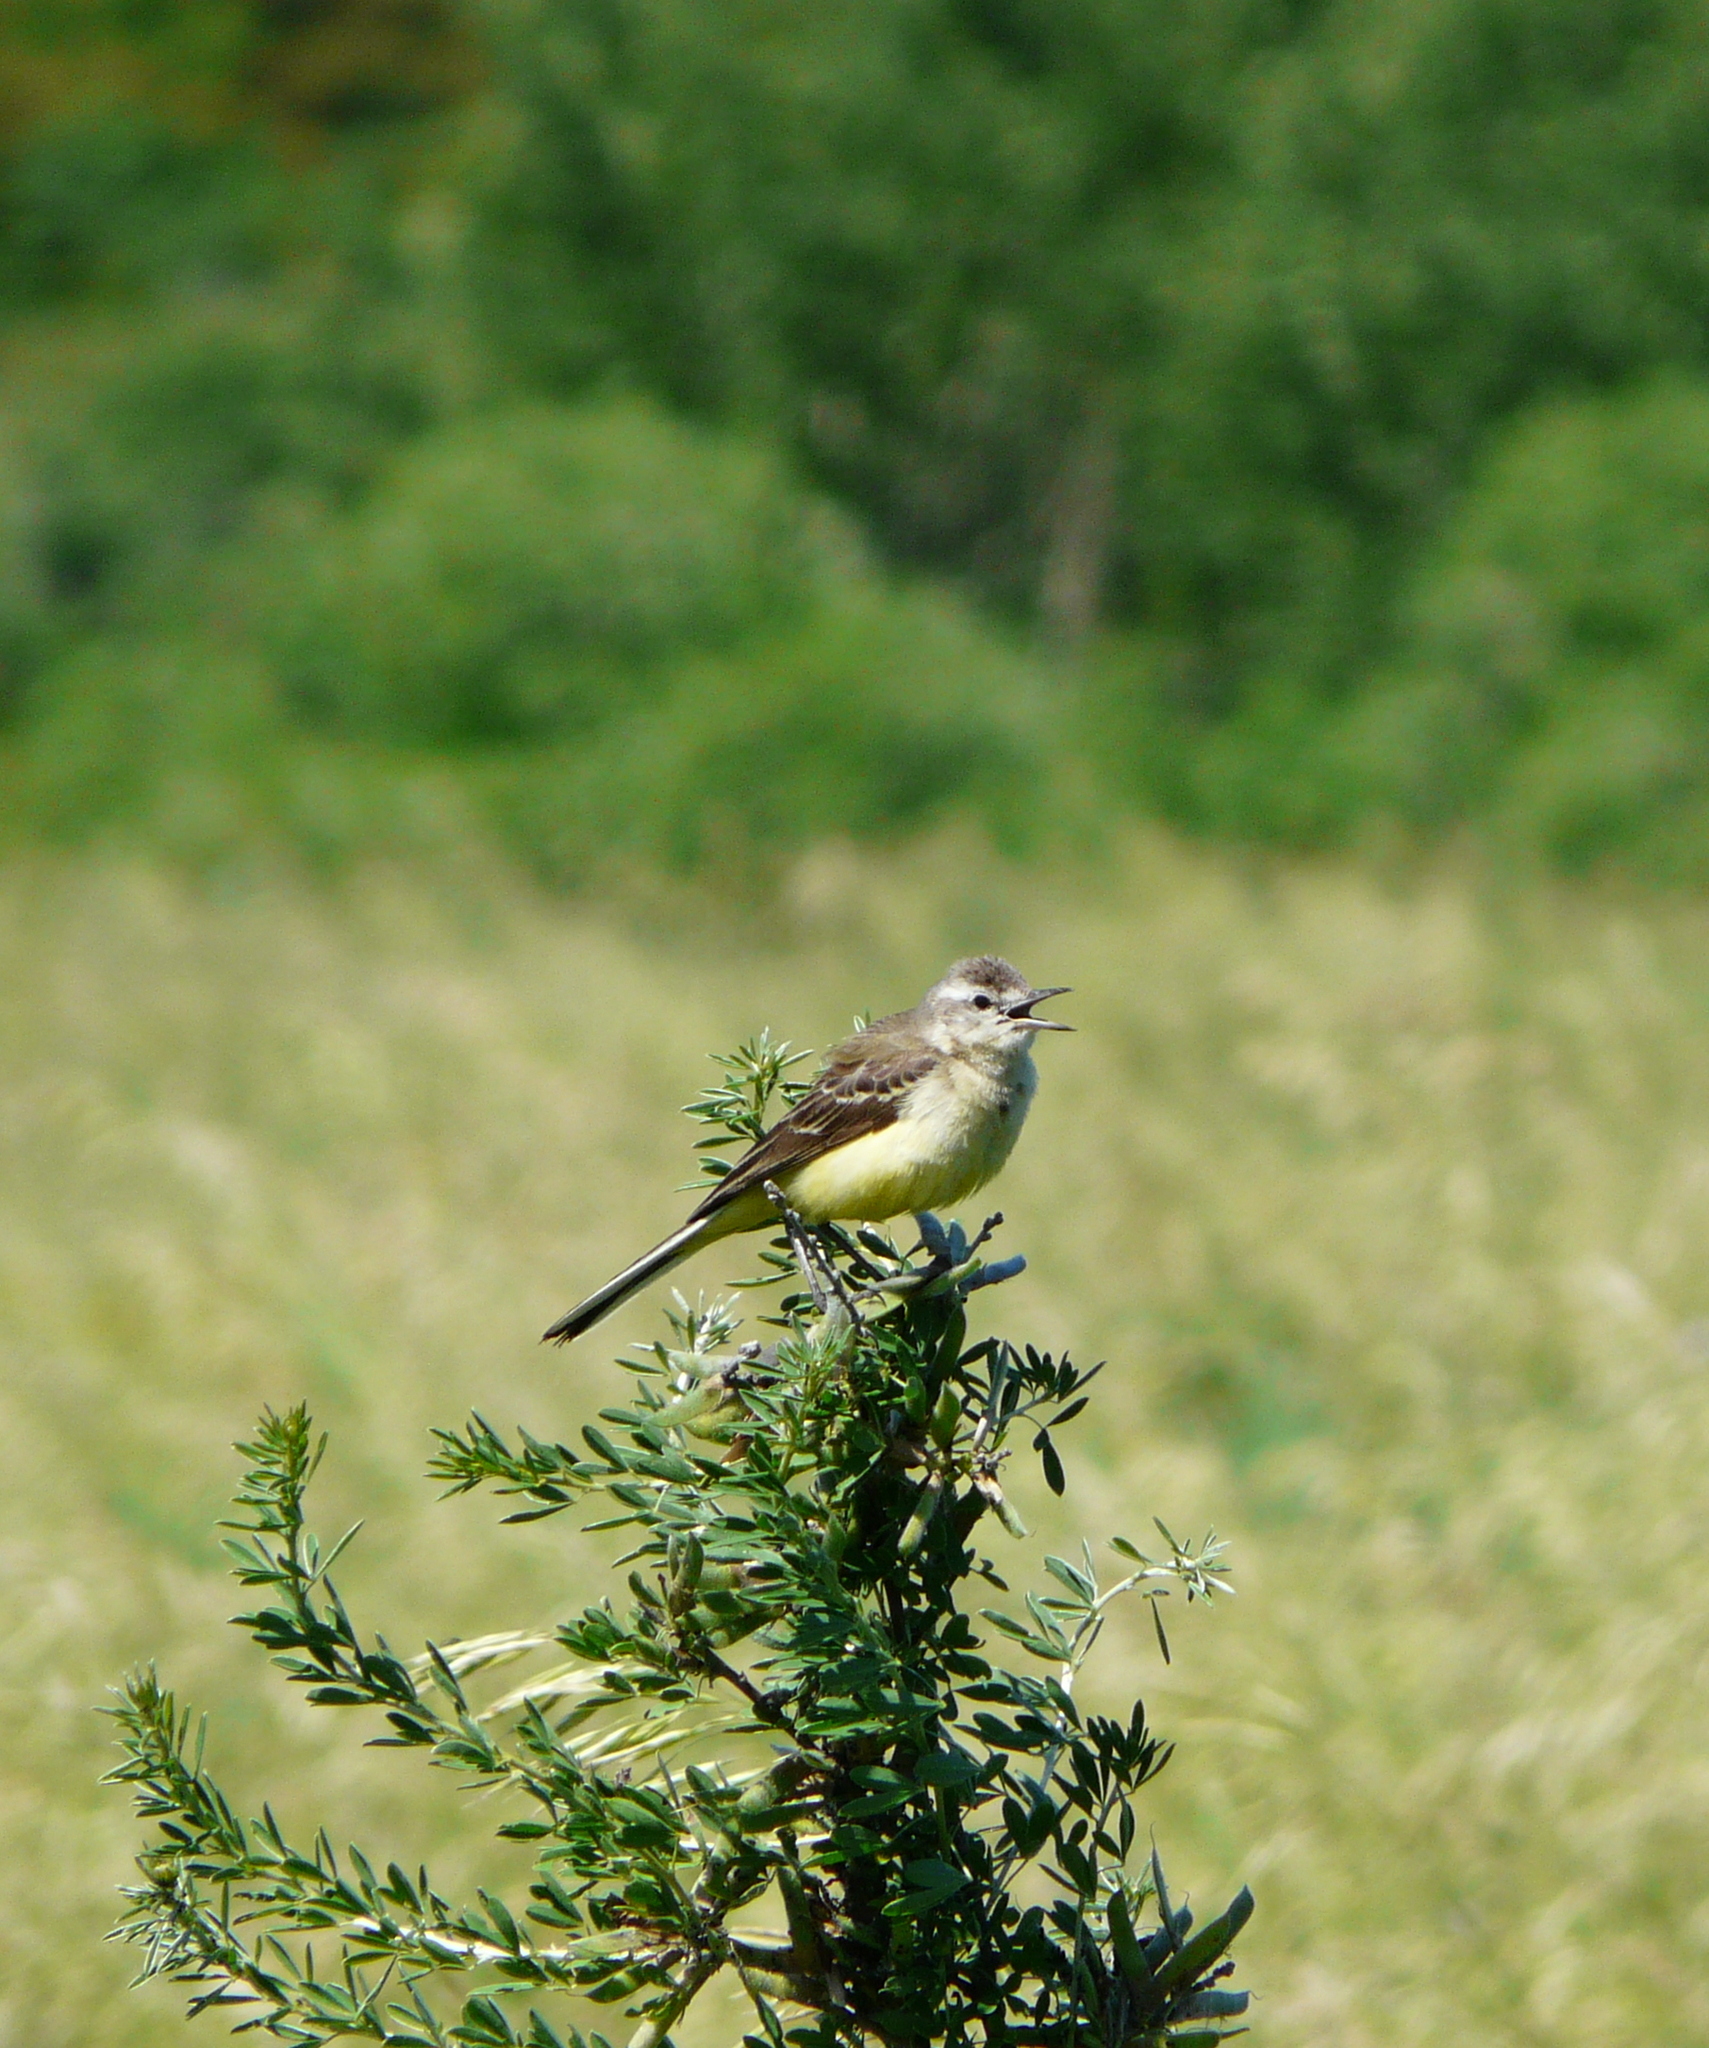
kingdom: Animalia
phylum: Chordata
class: Aves
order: Passeriformes
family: Motacillidae
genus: Motacilla
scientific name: Motacilla flava
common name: Western yellow wagtail
